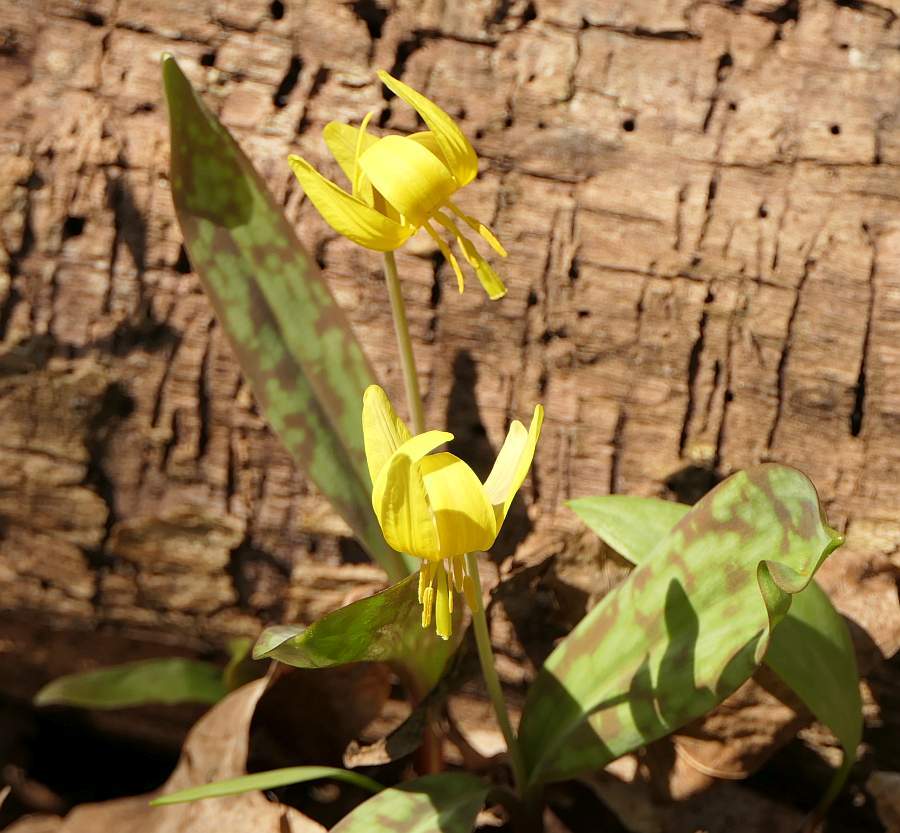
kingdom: Plantae
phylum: Tracheophyta
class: Liliopsida
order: Liliales
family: Liliaceae
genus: Erythronium
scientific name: Erythronium americanum
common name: Yellow adder's-tongue
